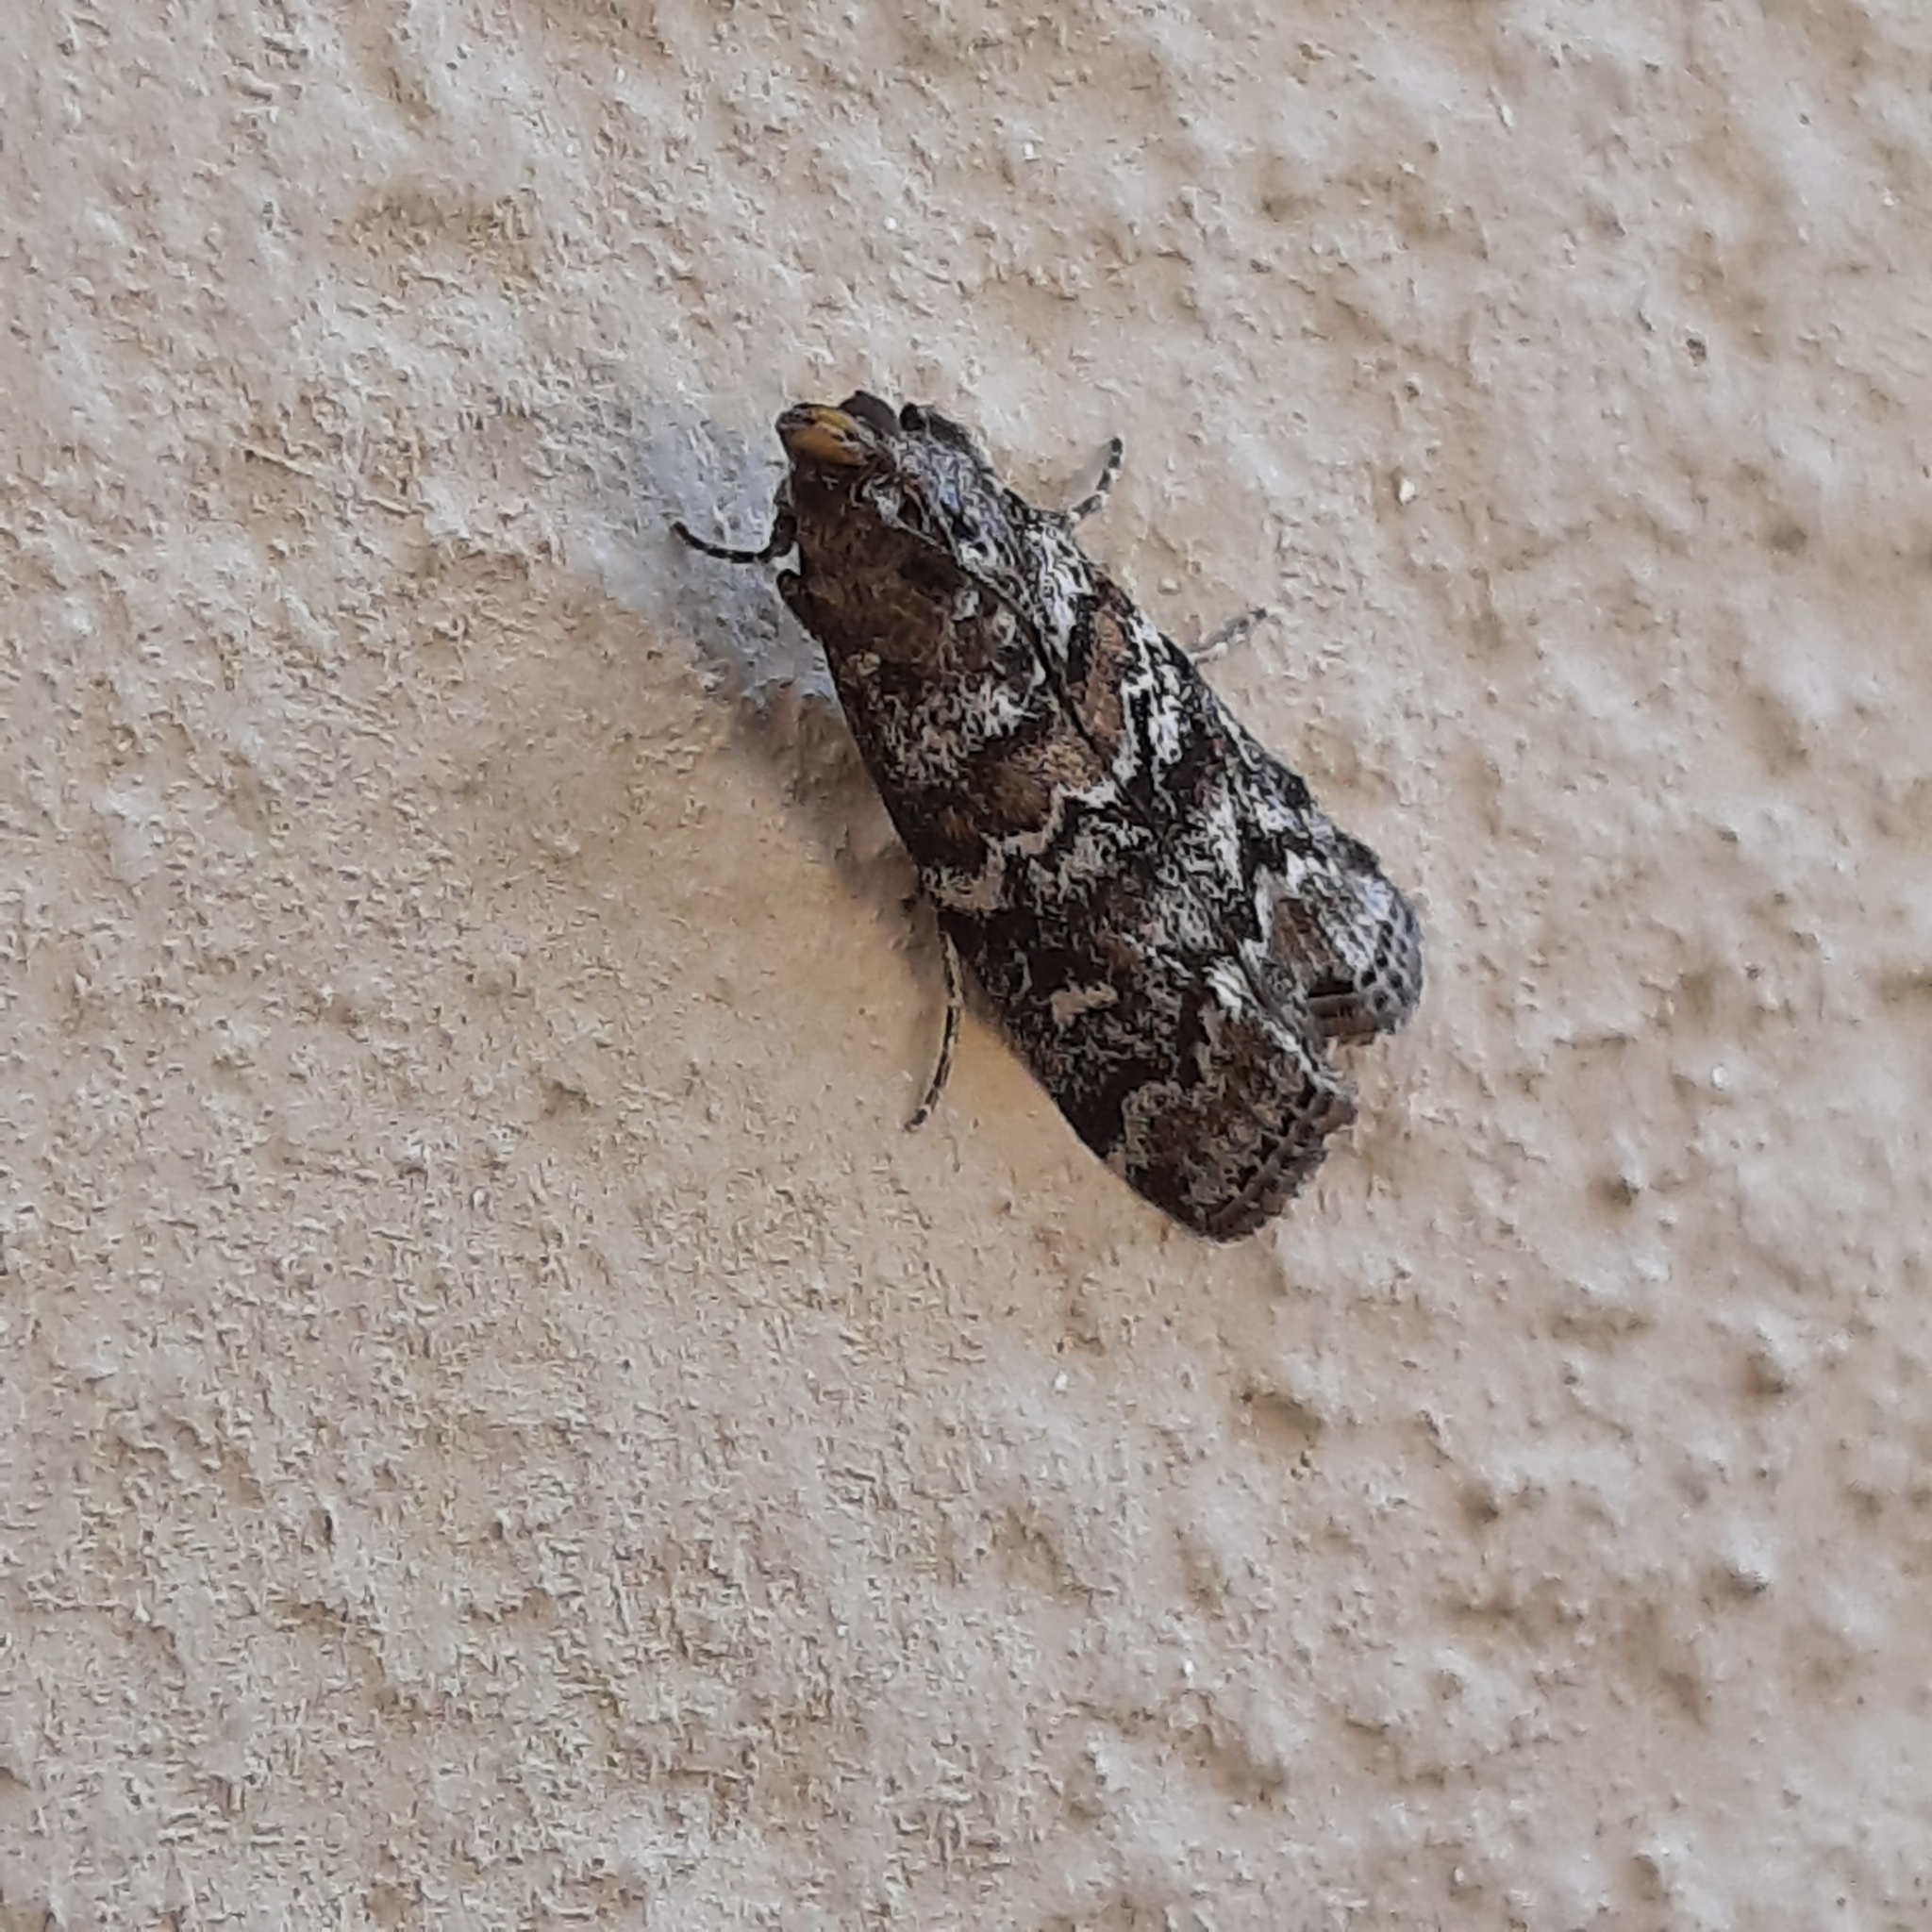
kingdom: Animalia
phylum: Arthropoda
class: Insecta
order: Lepidoptera
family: Pyralidae
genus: Dioryctria
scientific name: Dioryctria abietella
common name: Dark pine knot-horn
